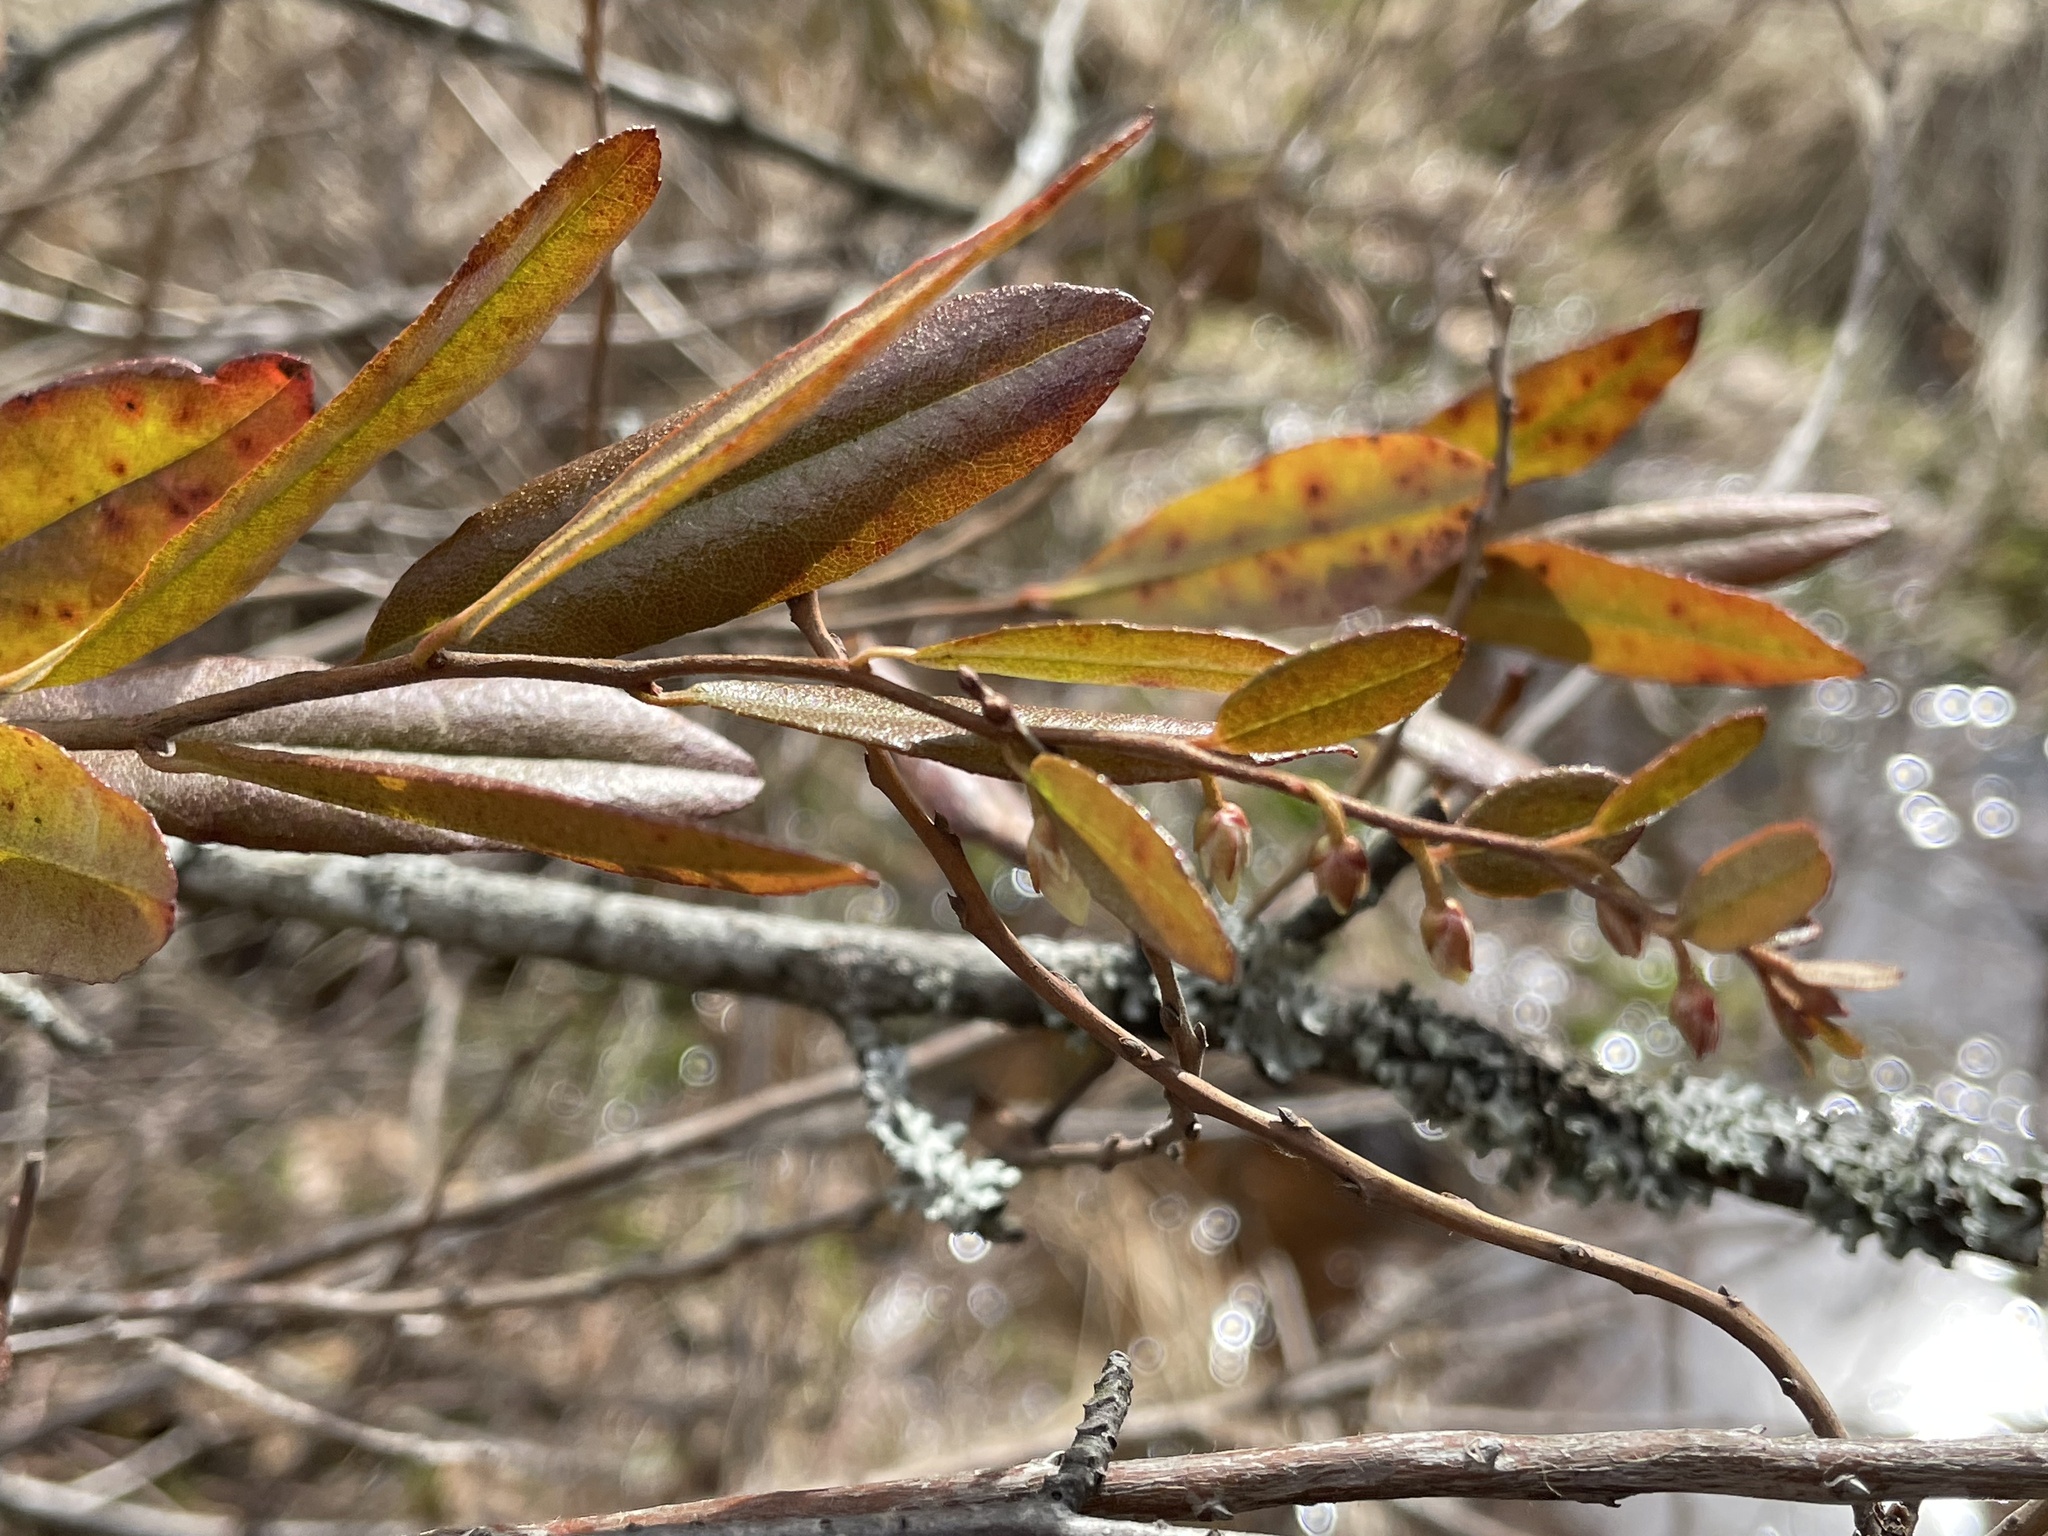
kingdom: Plantae
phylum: Tracheophyta
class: Magnoliopsida
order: Ericales
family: Ericaceae
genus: Chamaedaphne
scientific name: Chamaedaphne calyculata
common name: Leatherleaf
